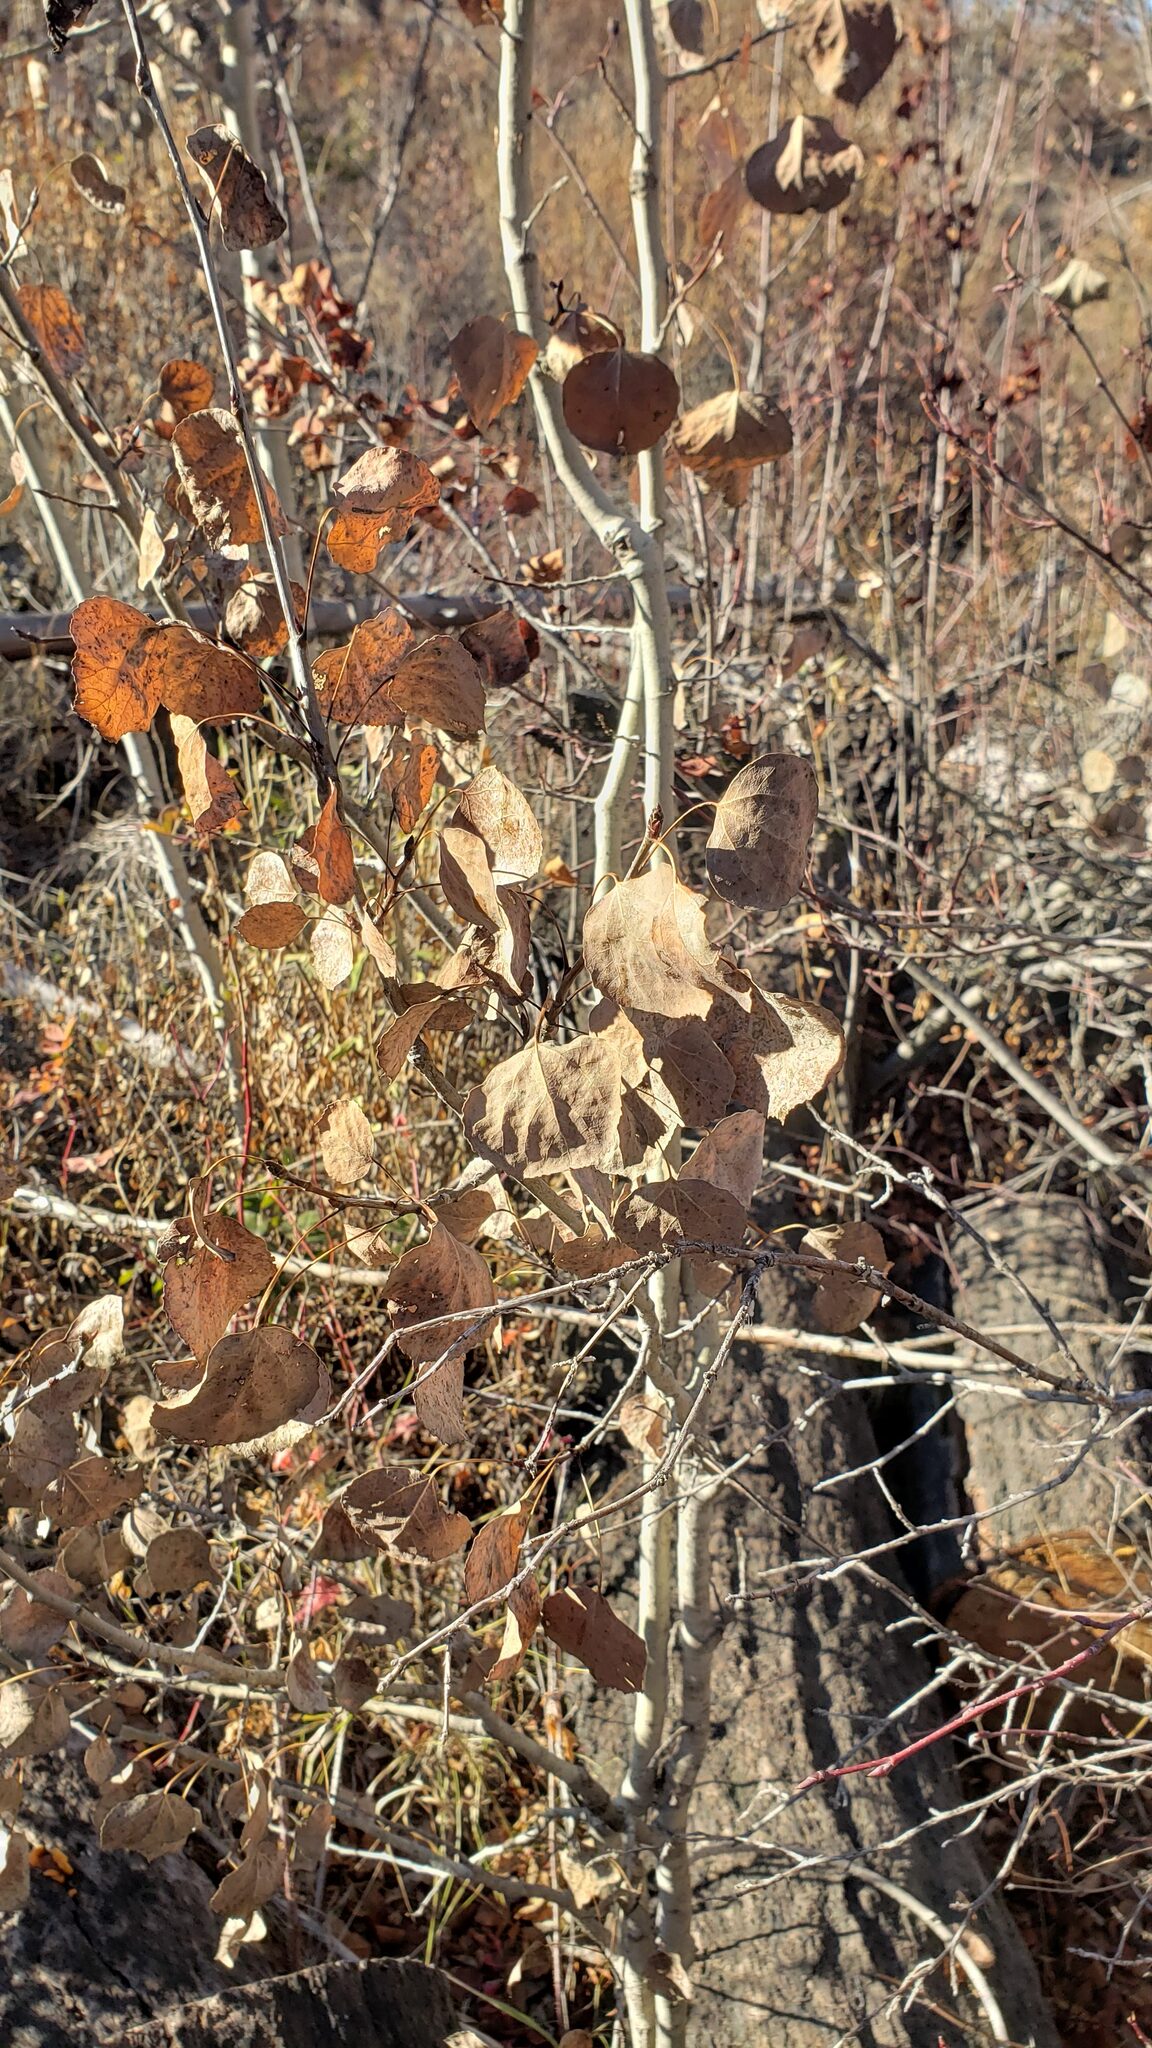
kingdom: Plantae
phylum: Tracheophyta
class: Magnoliopsida
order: Malpighiales
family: Salicaceae
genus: Populus
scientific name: Populus tremuloides
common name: Quaking aspen
